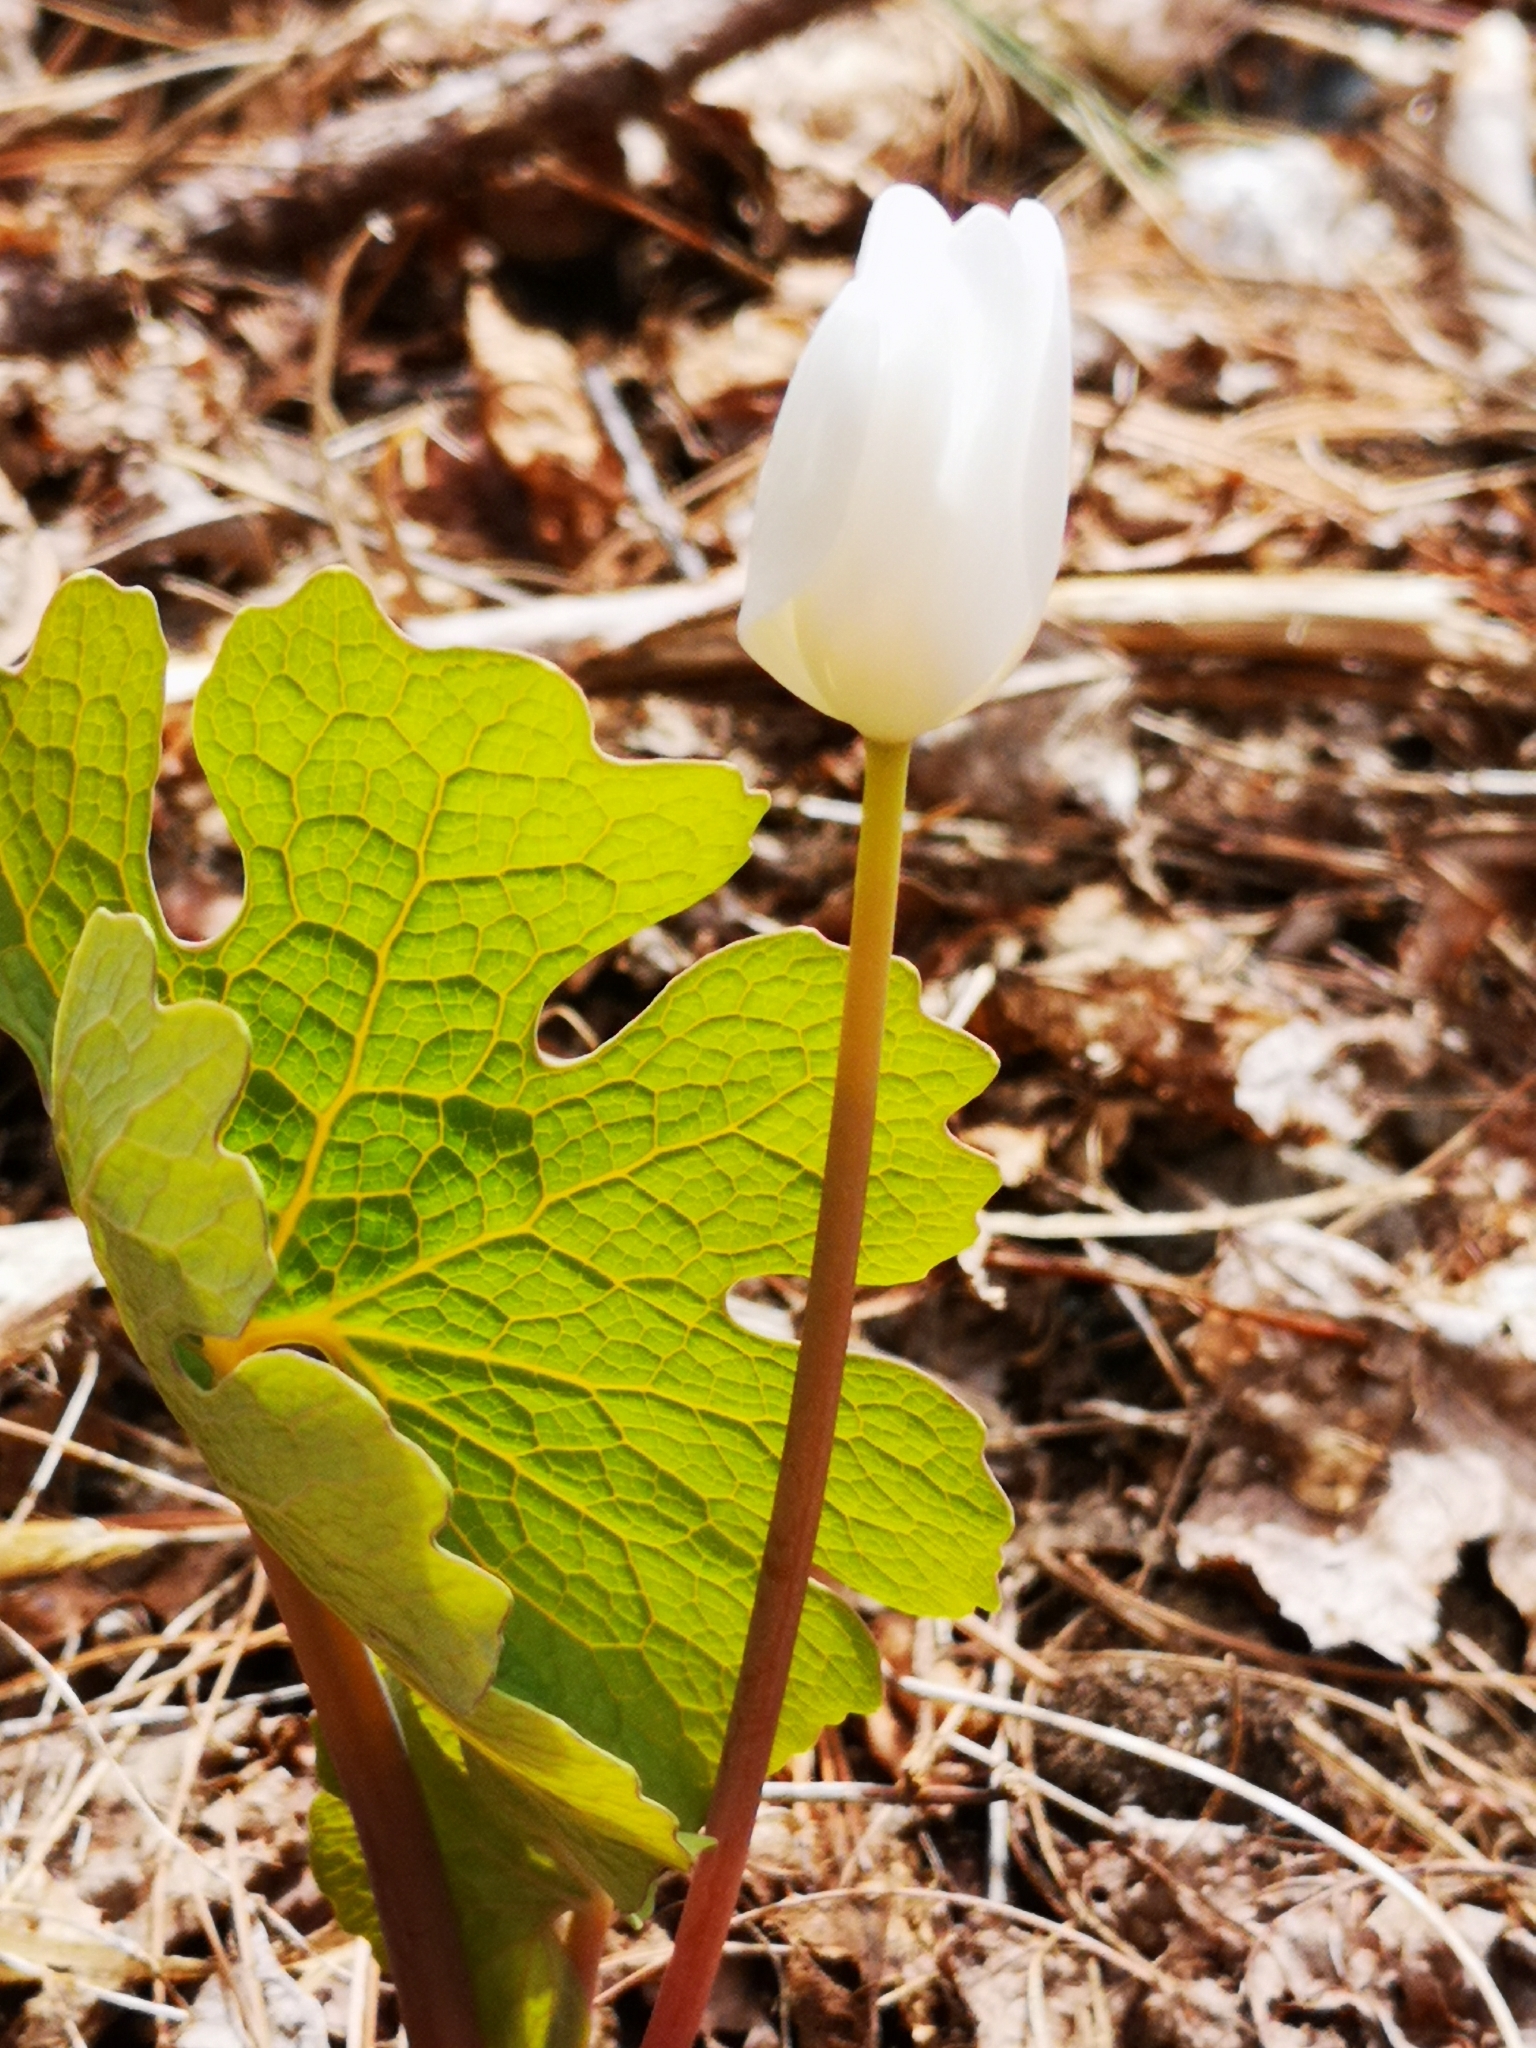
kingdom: Plantae
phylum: Tracheophyta
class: Magnoliopsida
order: Ranunculales
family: Papaveraceae
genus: Sanguinaria
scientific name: Sanguinaria canadensis
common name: Bloodroot
